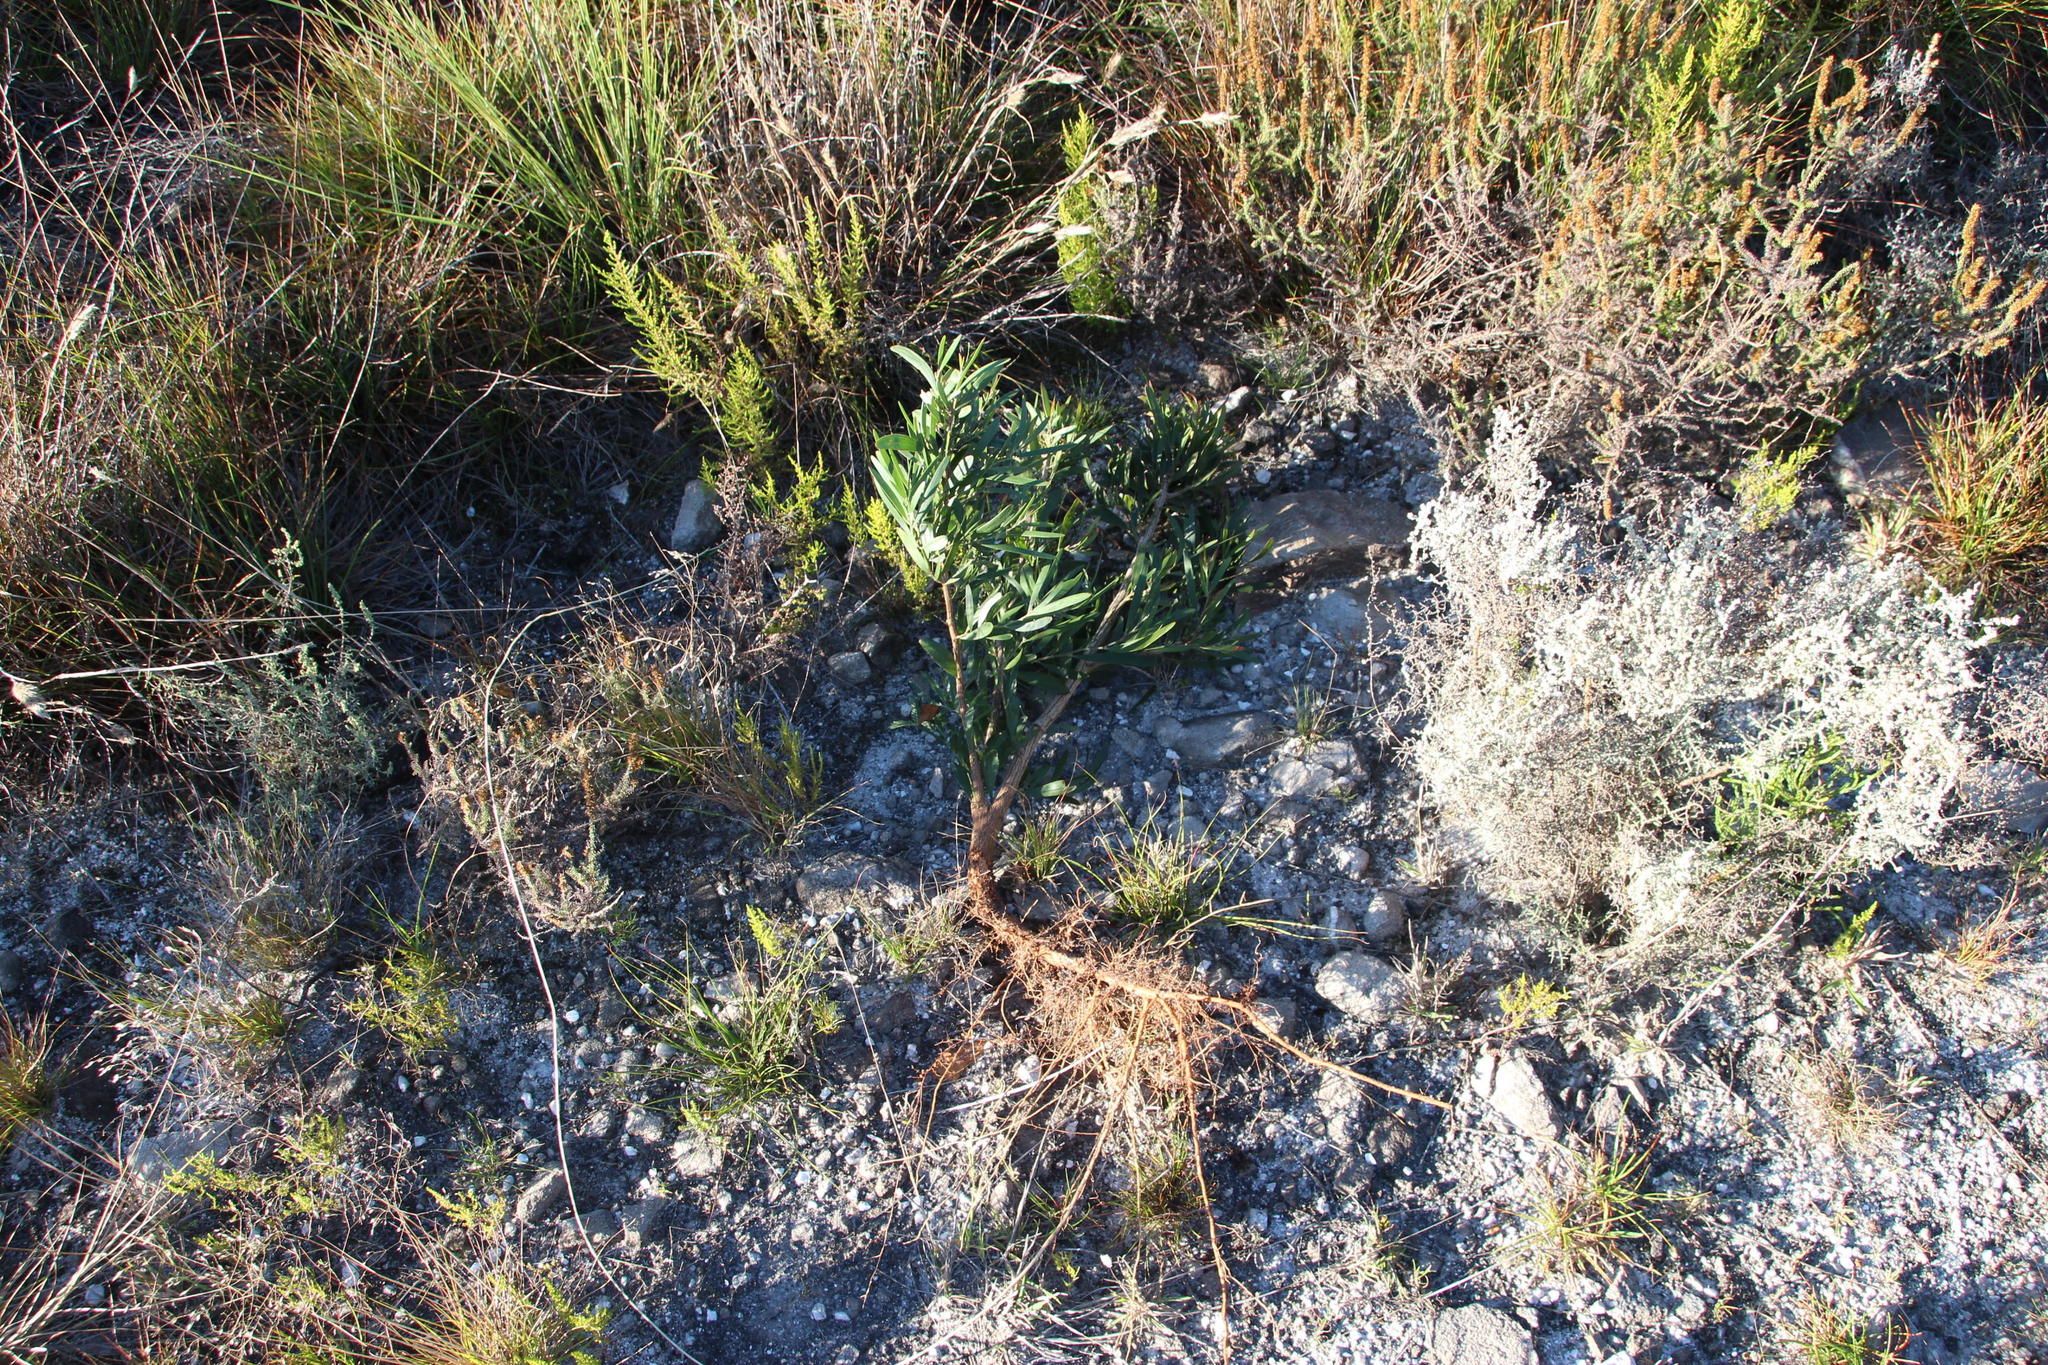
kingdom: Plantae
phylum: Tracheophyta
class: Magnoliopsida
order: Fabales
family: Fabaceae
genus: Acacia
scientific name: Acacia melanoxylon
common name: Blackwood
